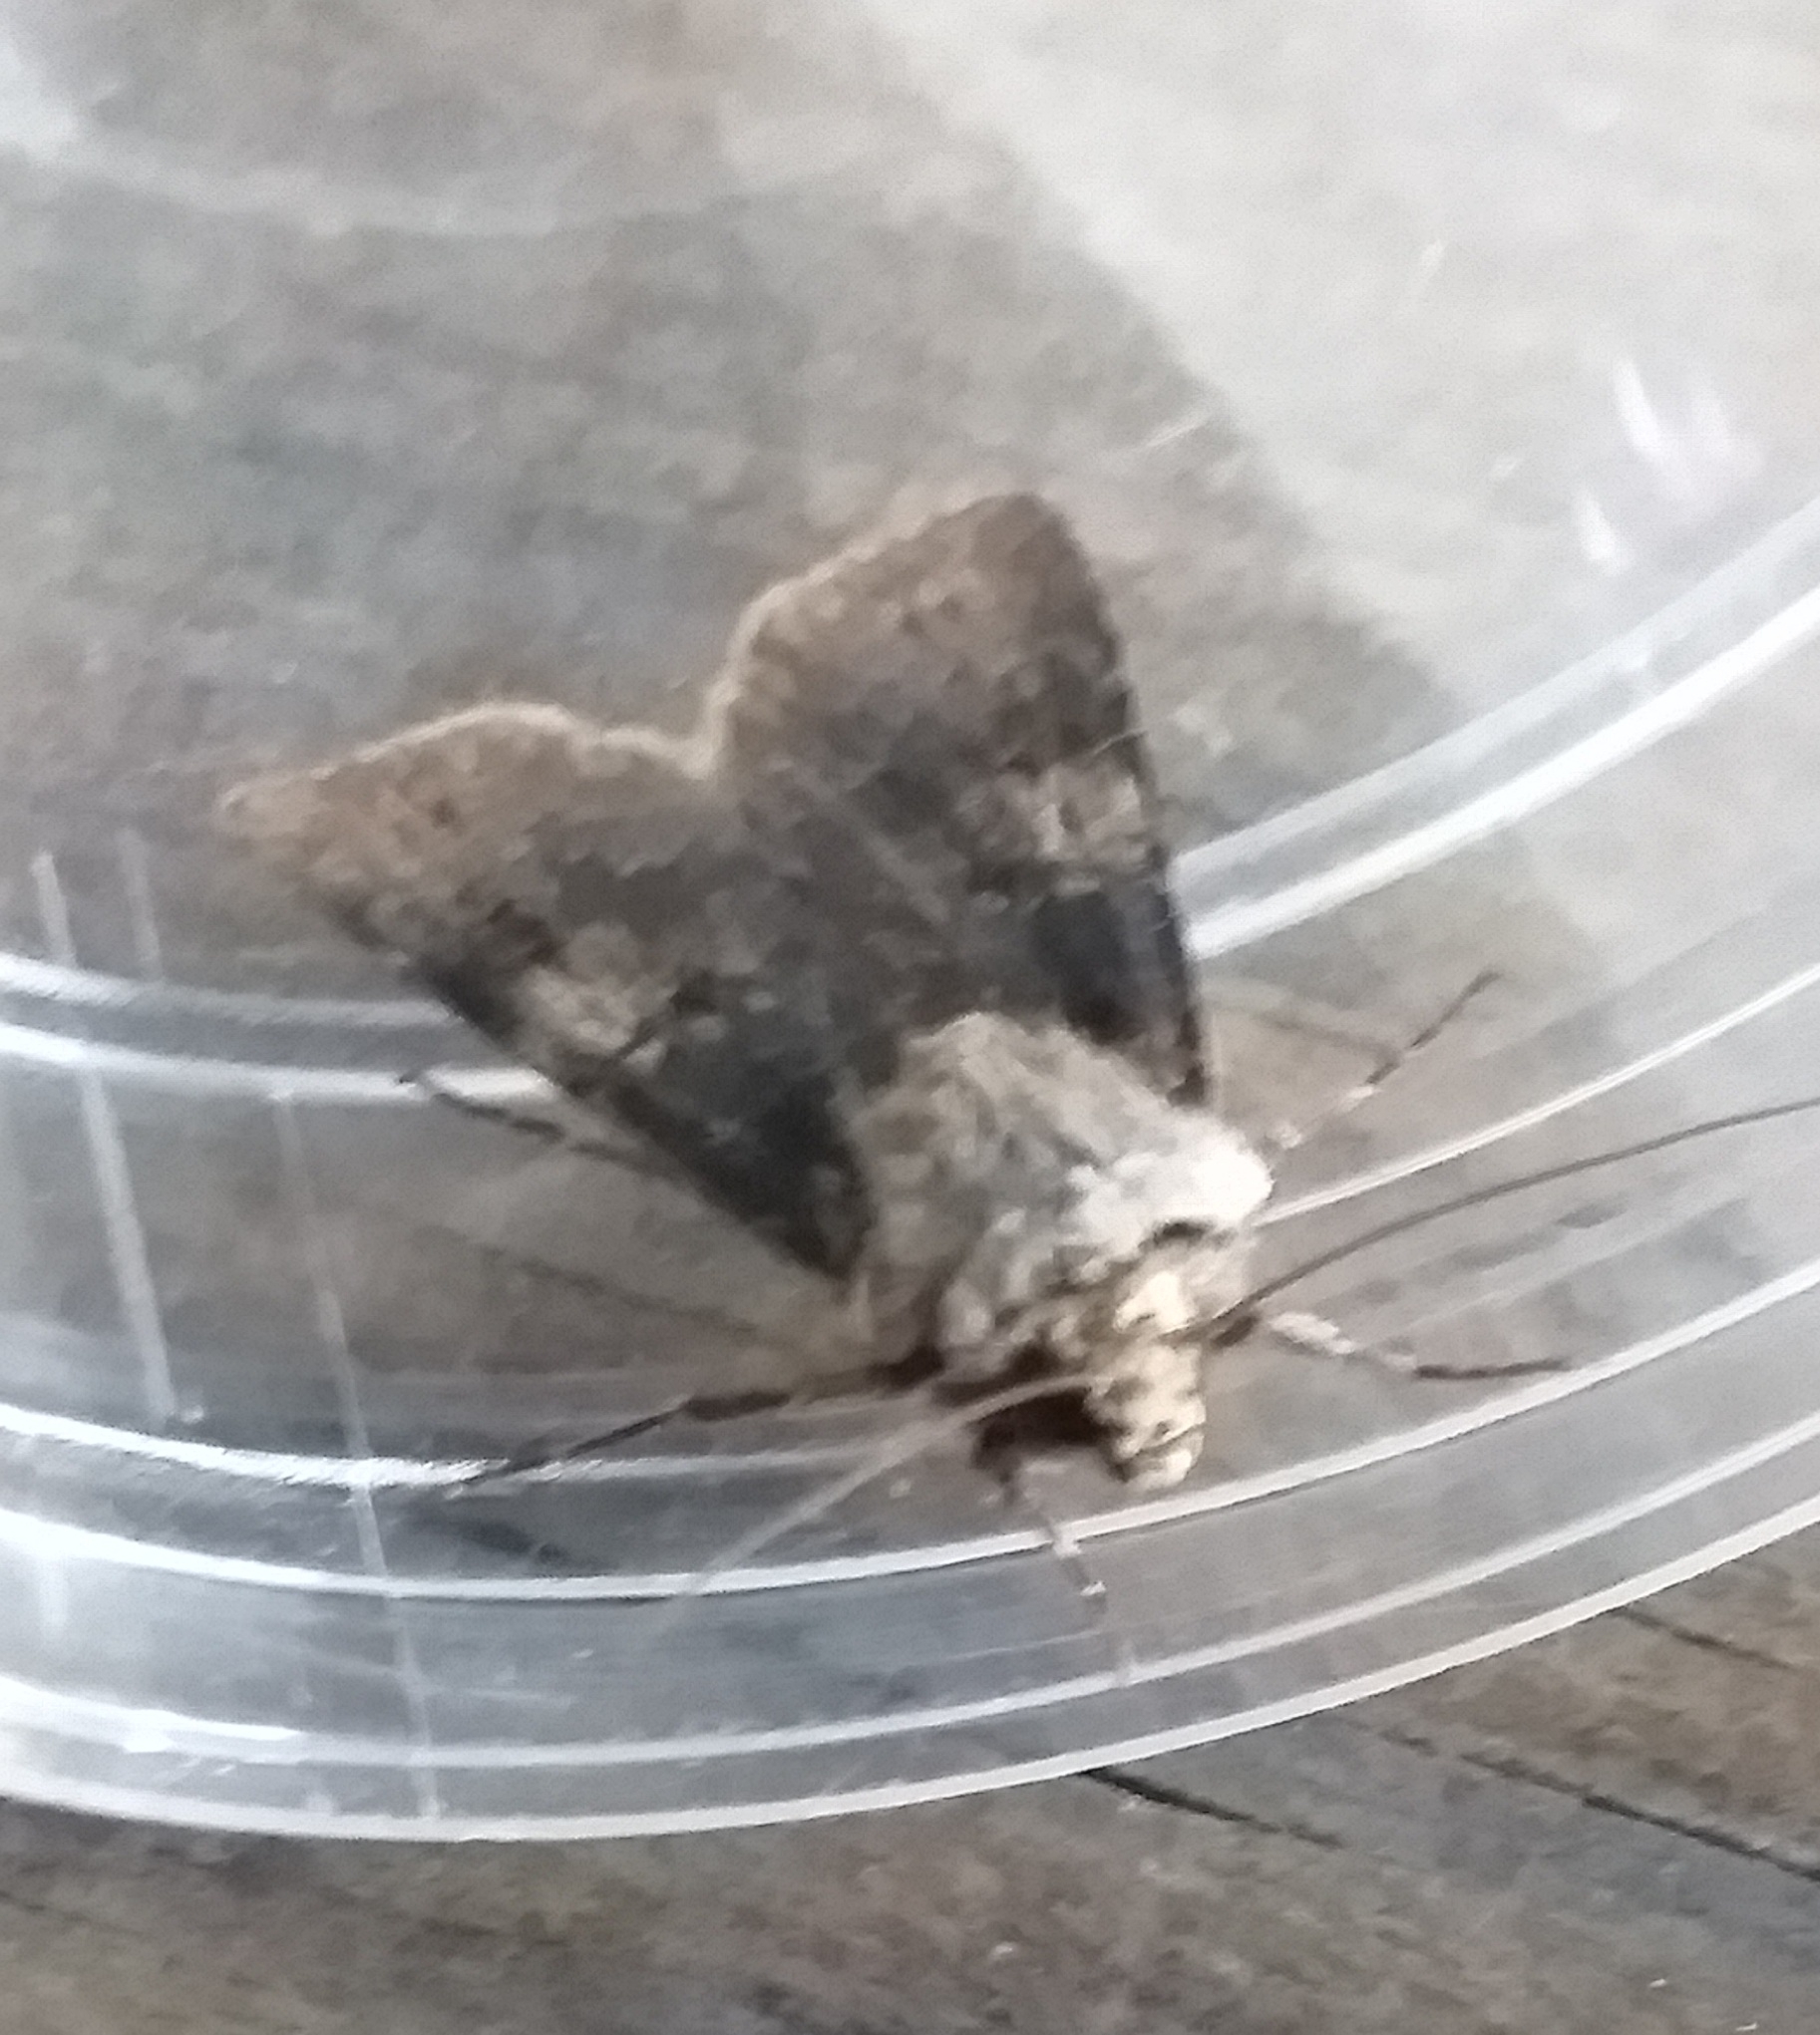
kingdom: Animalia
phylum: Arthropoda
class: Insecta
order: Lepidoptera
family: Noctuidae
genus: Agrotis
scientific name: Agrotis puta
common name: Shuttle-shaped dart
